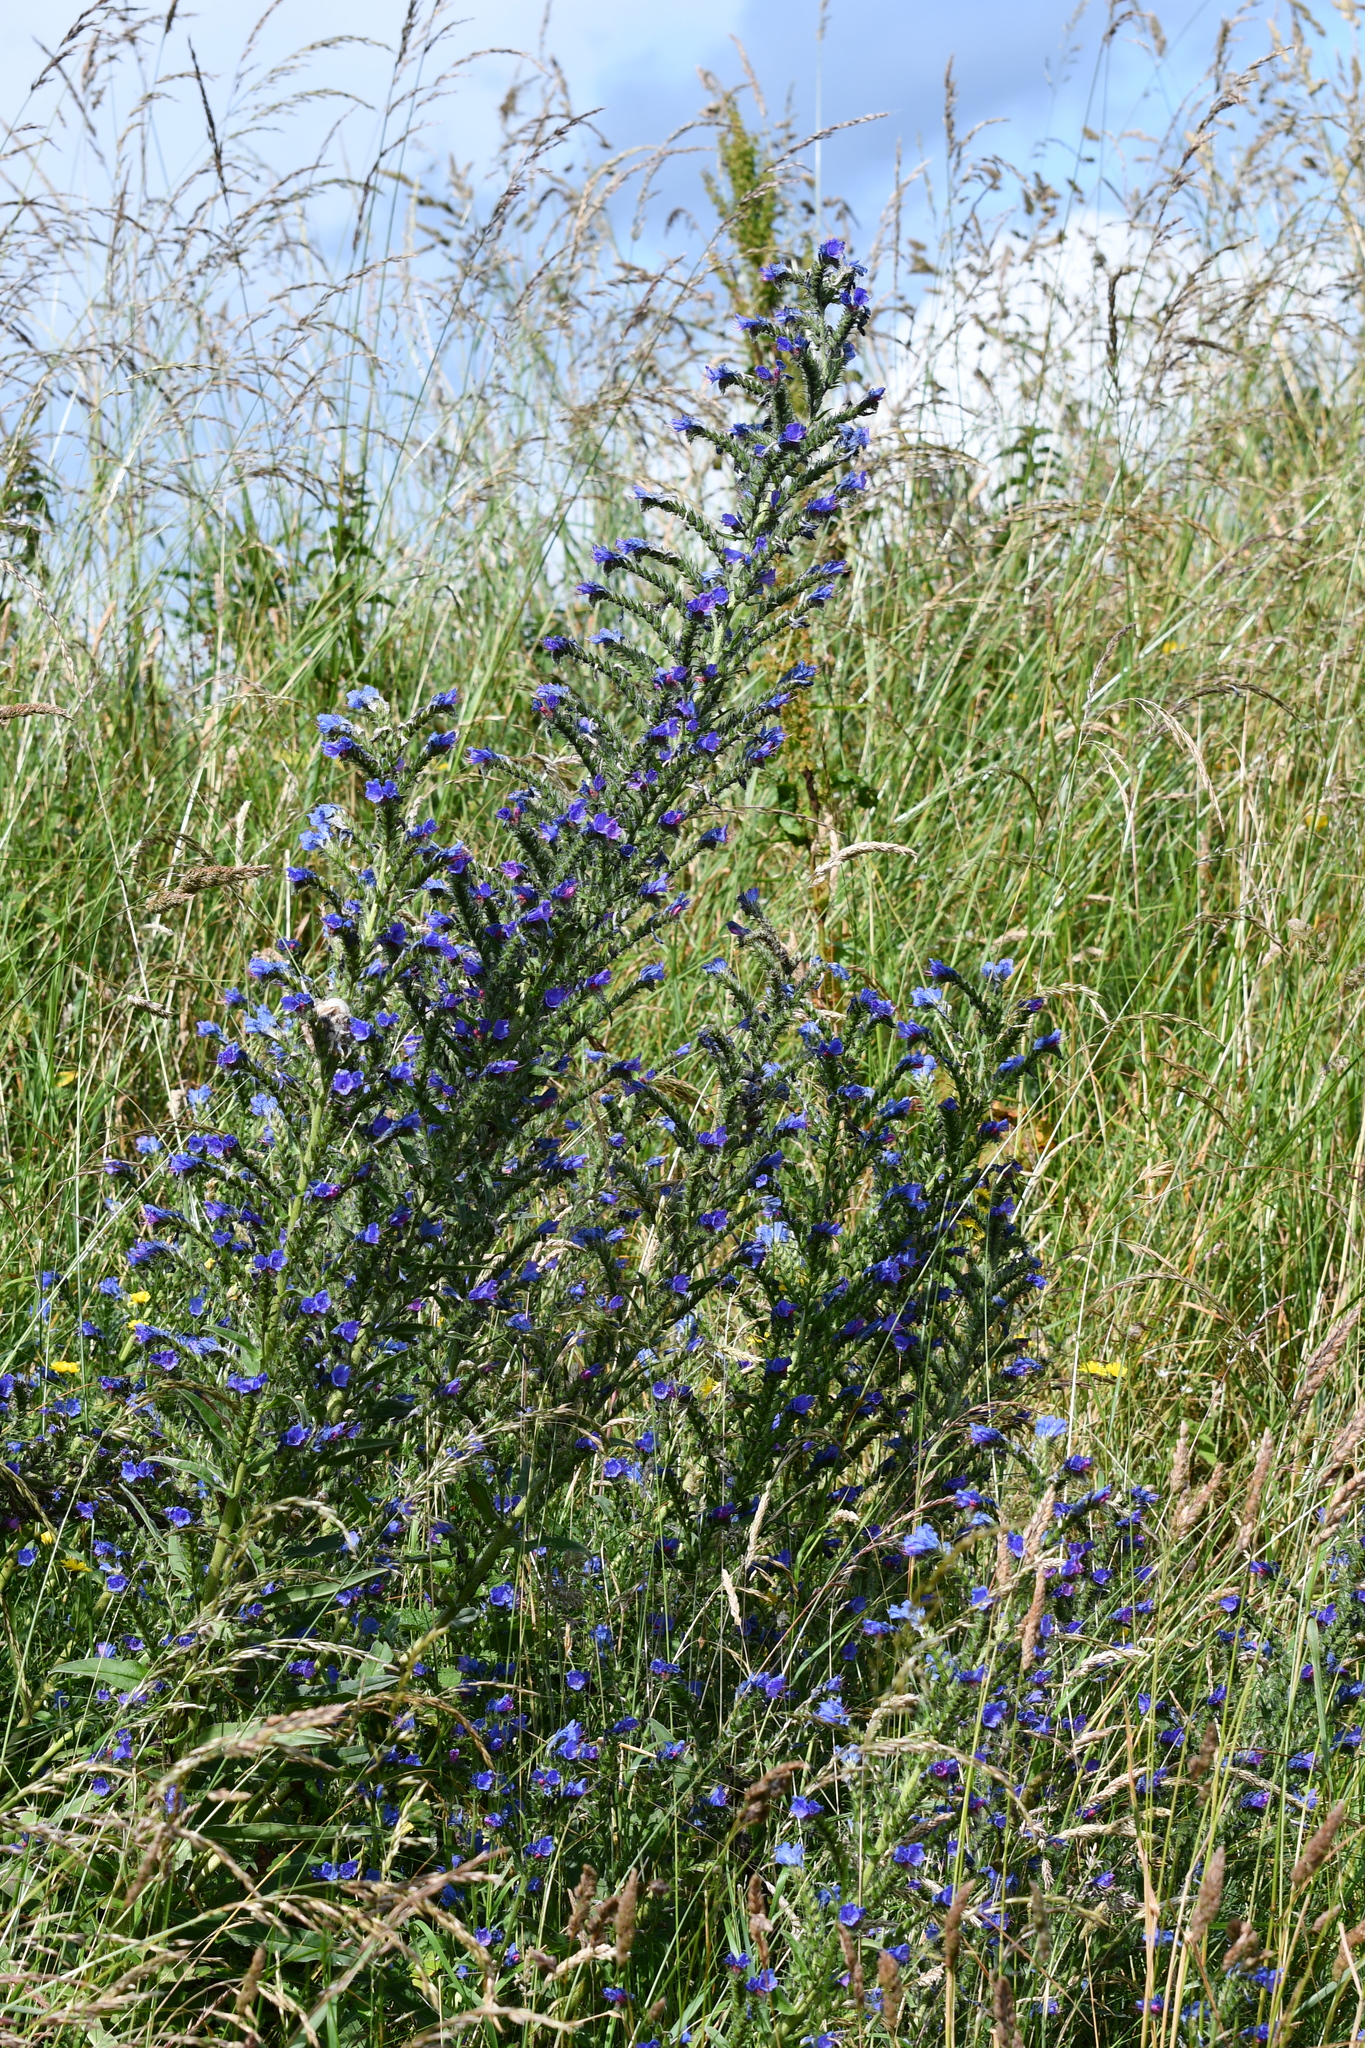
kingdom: Plantae
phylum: Tracheophyta
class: Magnoliopsida
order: Boraginales
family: Boraginaceae
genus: Echium
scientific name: Echium vulgare
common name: Common viper's bugloss
